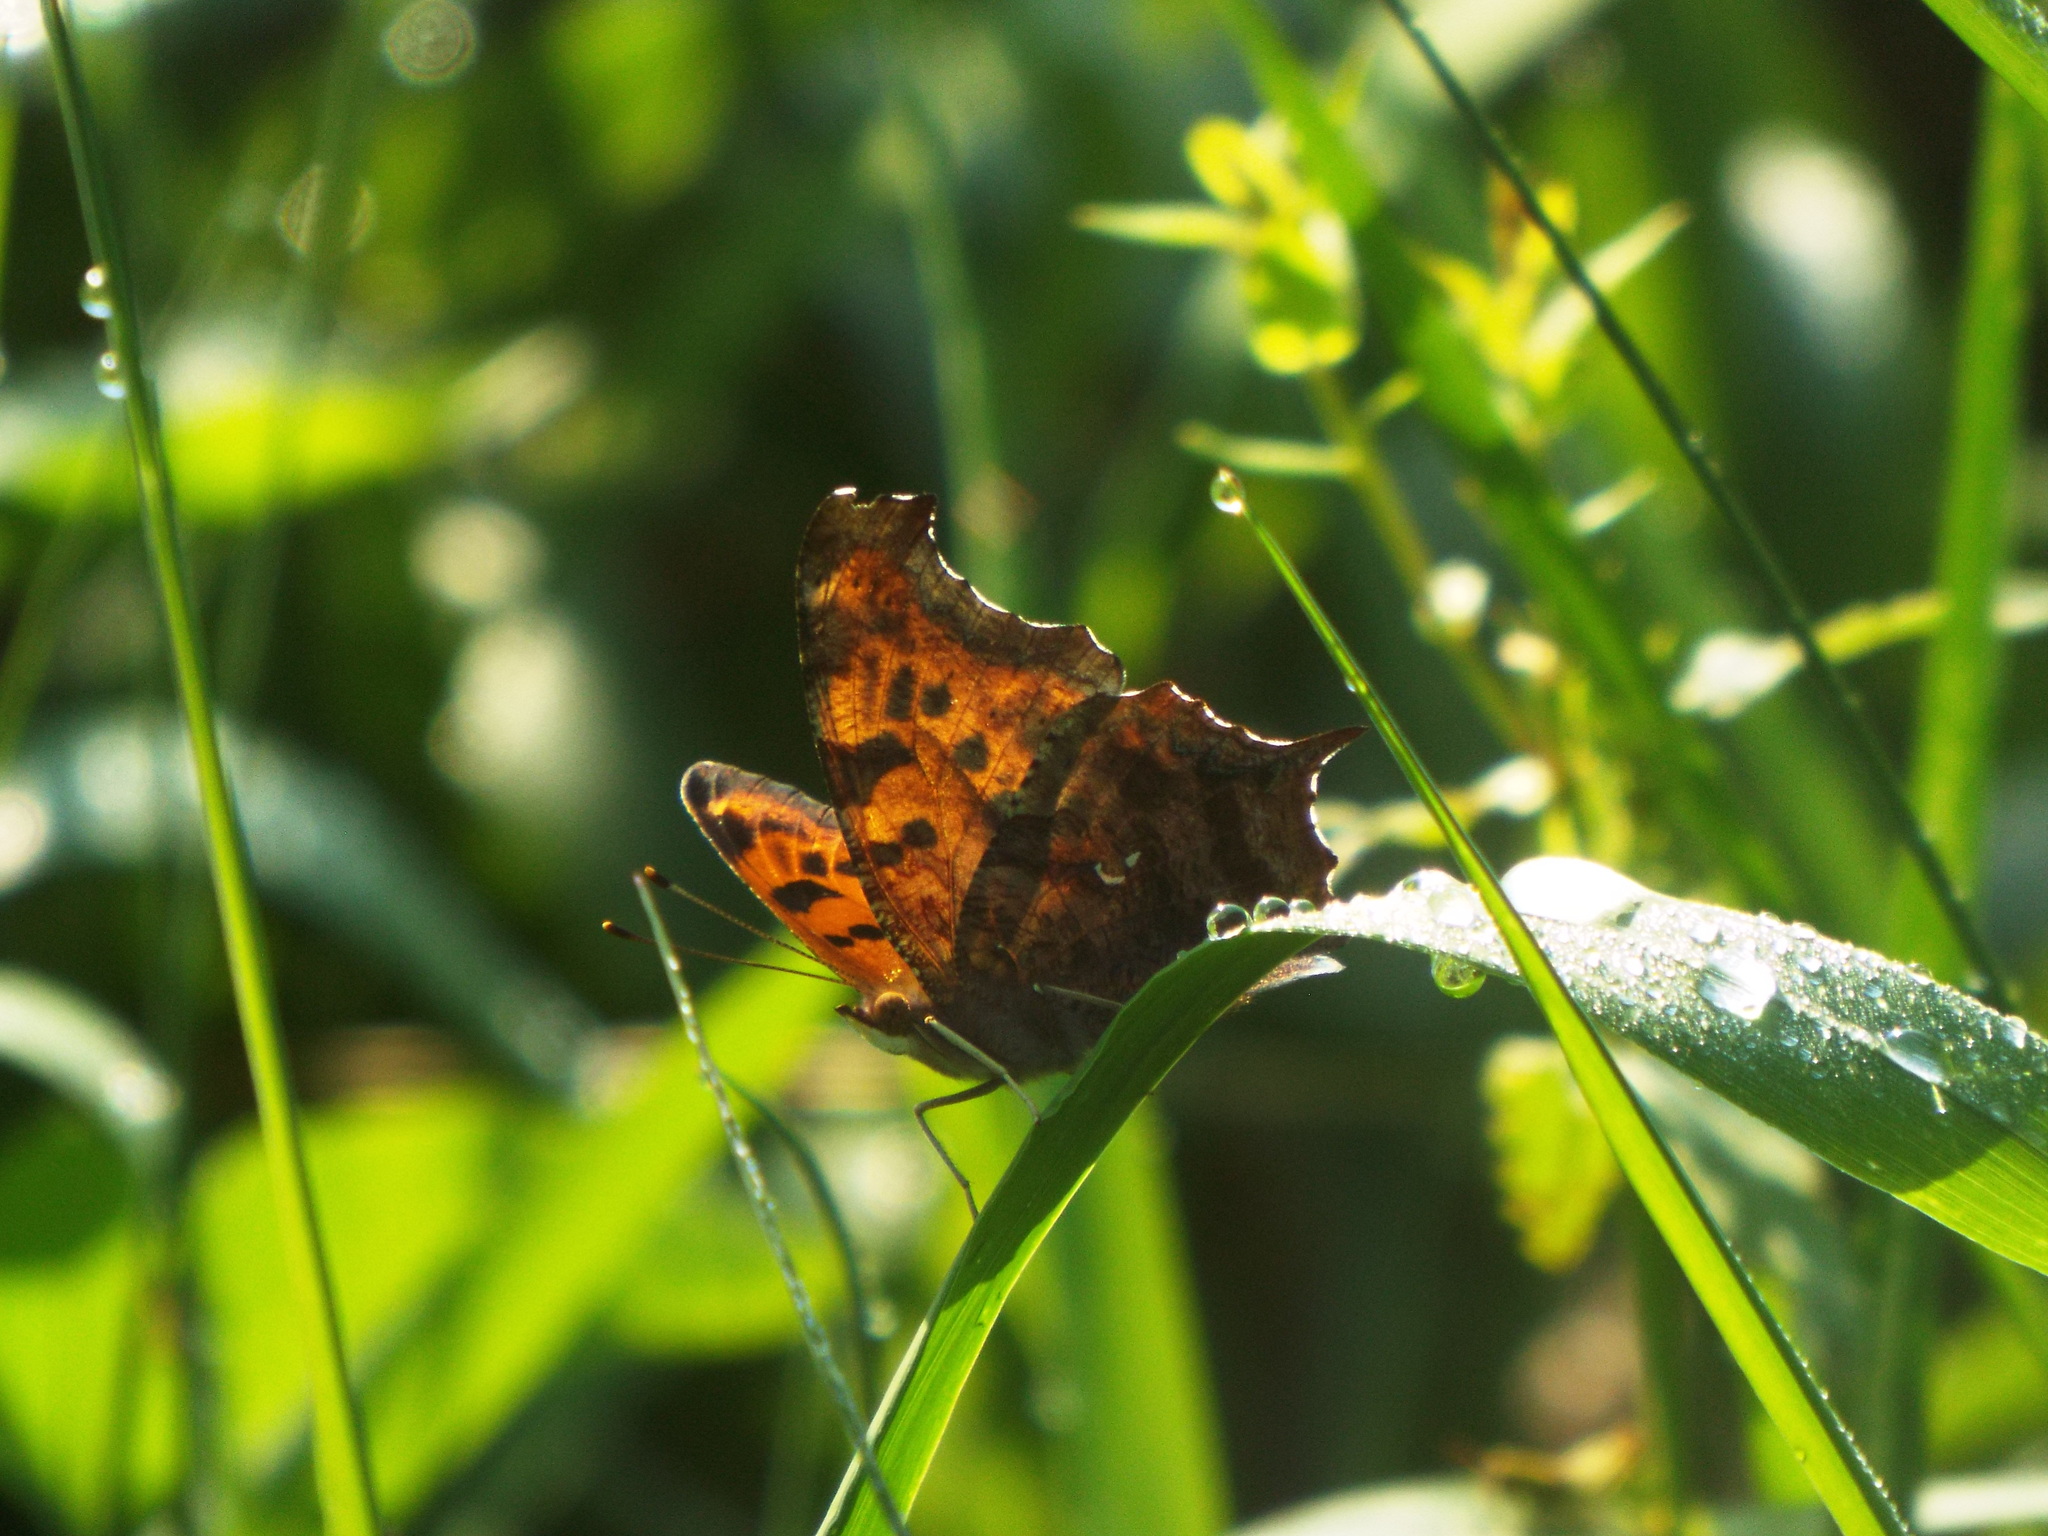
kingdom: Animalia
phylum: Arthropoda
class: Insecta
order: Lepidoptera
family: Nymphalidae
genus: Polygonia
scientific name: Polygonia interrogationis
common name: Question mark
